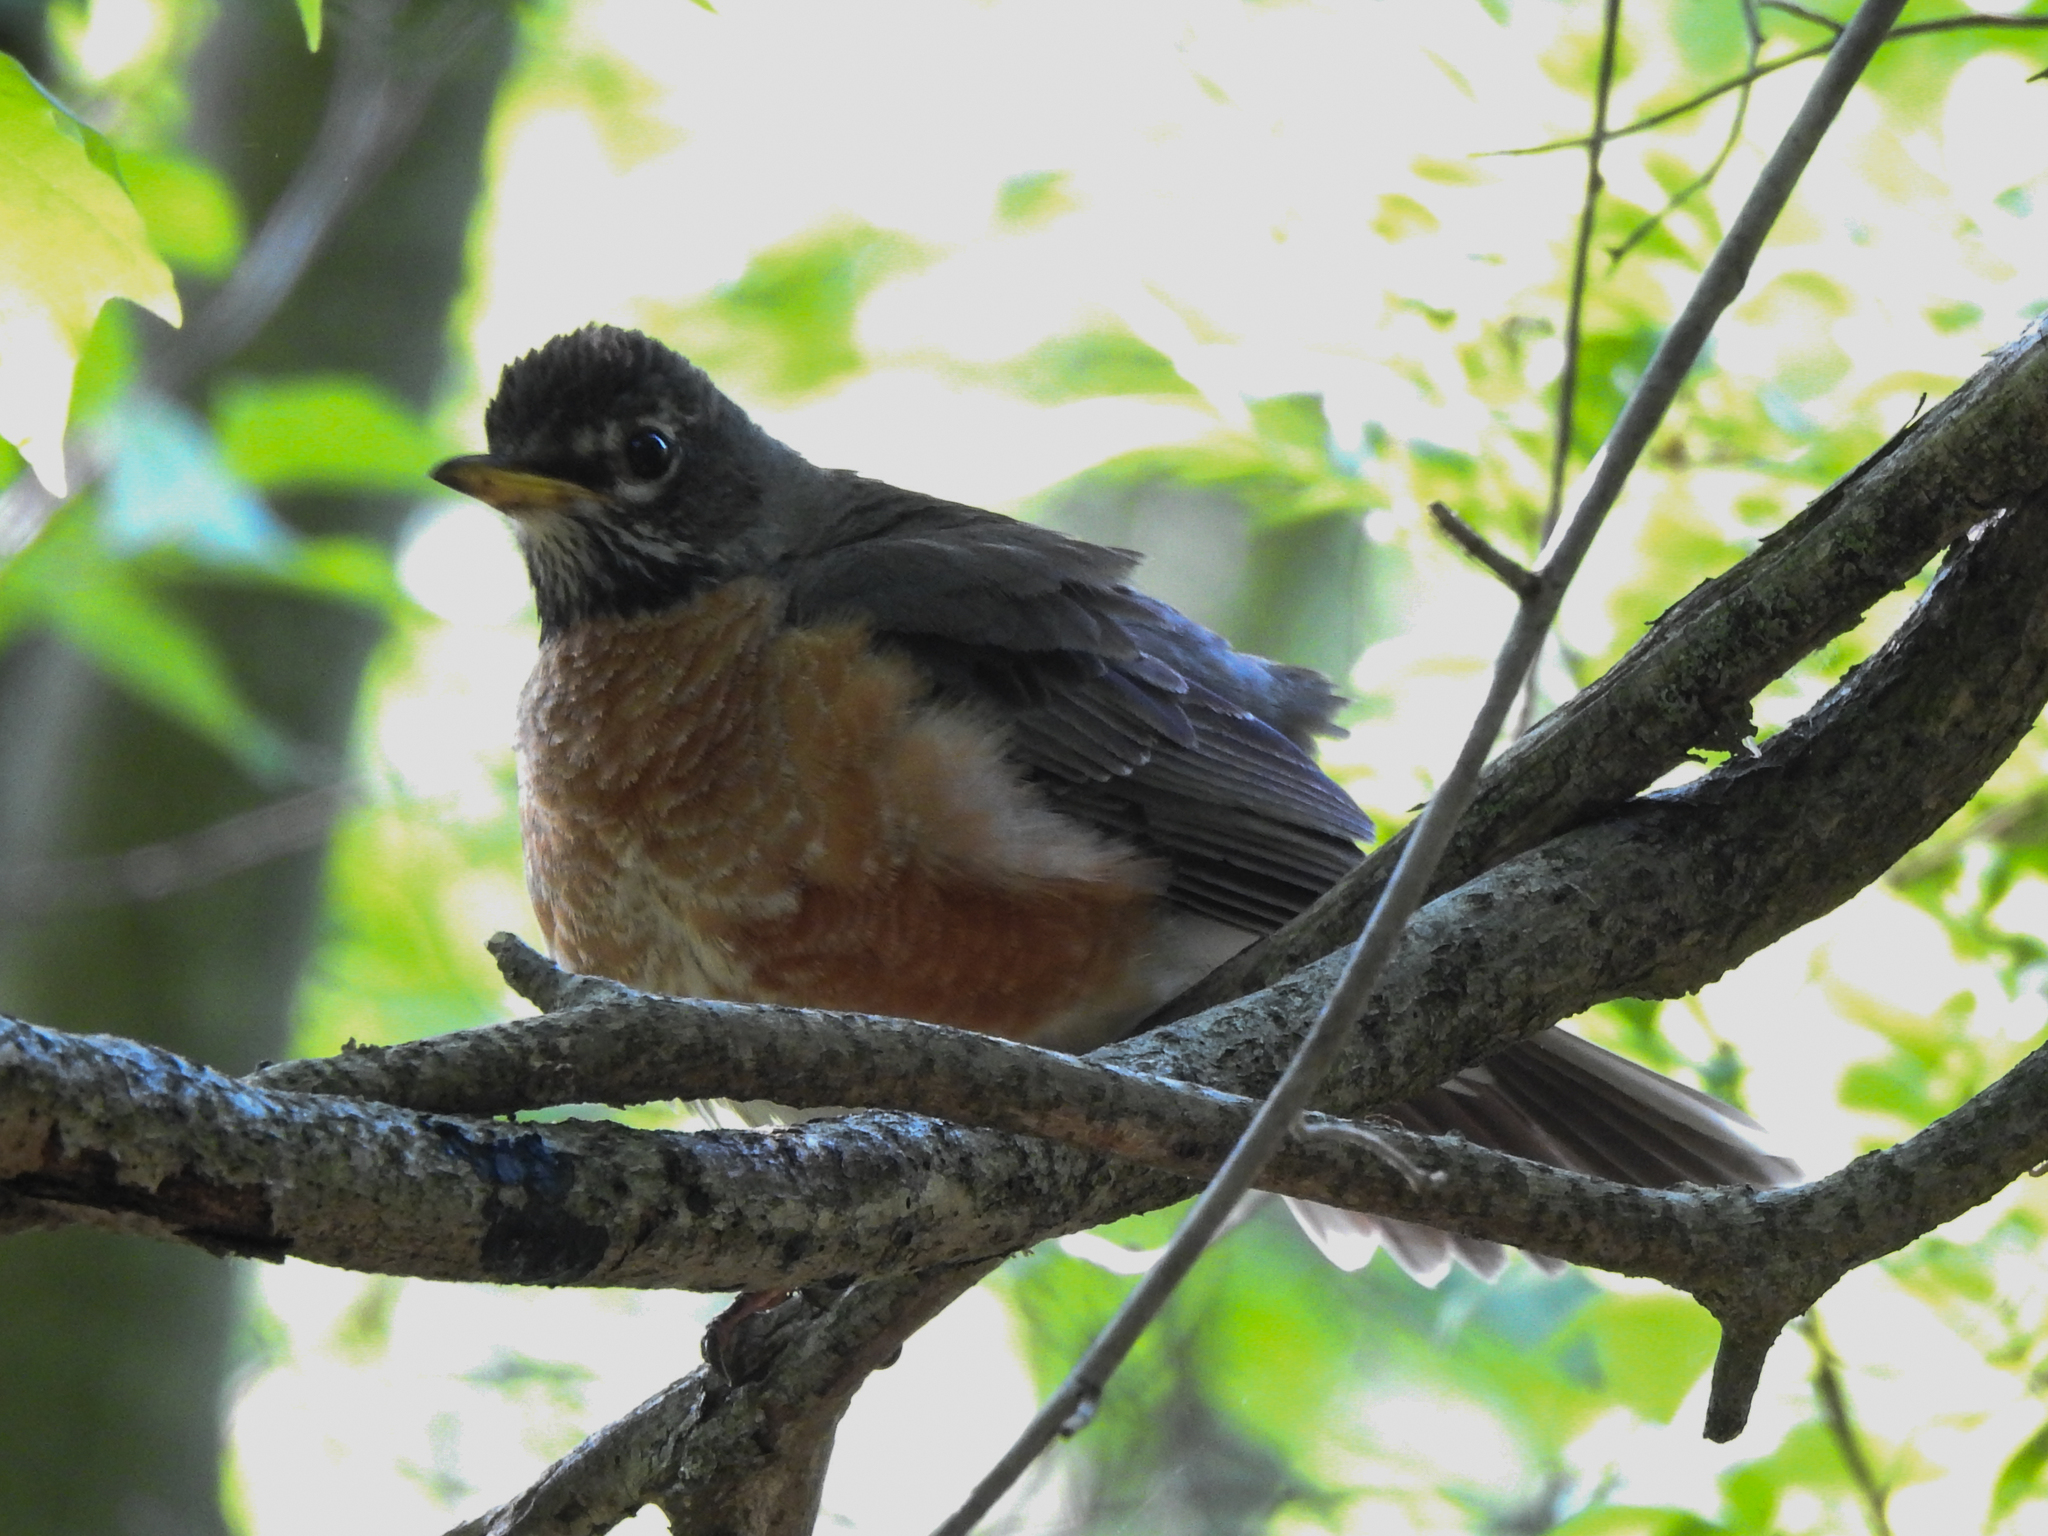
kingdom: Animalia
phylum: Chordata
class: Aves
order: Passeriformes
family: Turdidae
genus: Turdus
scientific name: Turdus migratorius
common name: American robin
